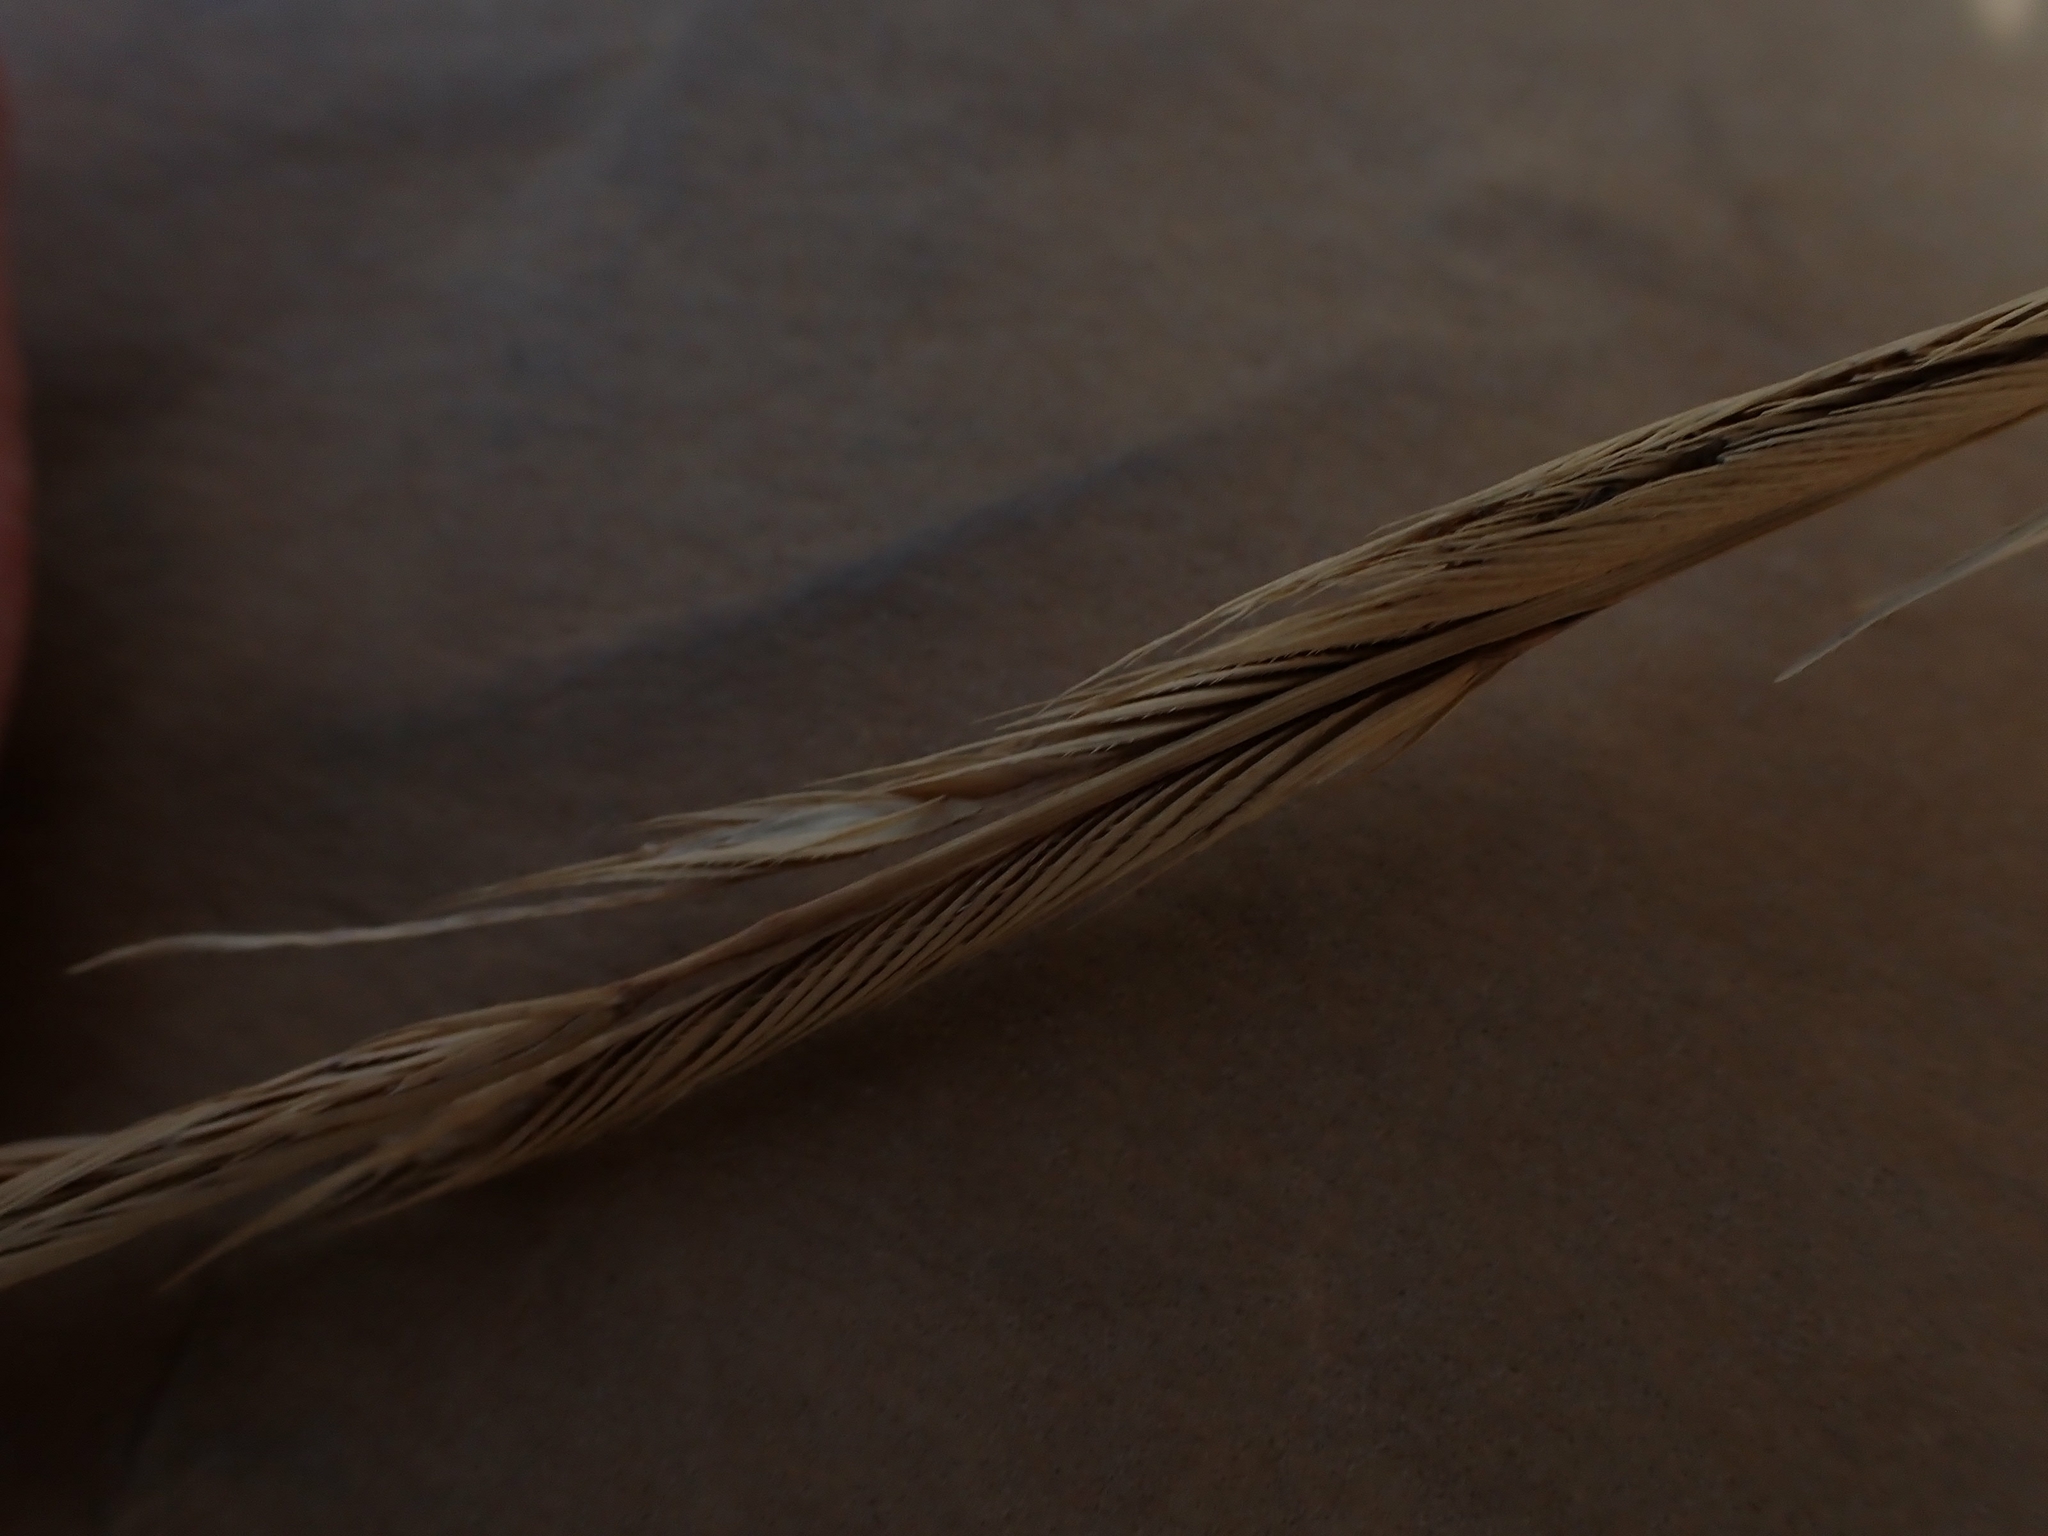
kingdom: Plantae
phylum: Tracheophyta
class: Liliopsida
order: Poales
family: Poaceae
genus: Sporobolus
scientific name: Sporobolus michauxianus
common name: Freshwater cordgrass
